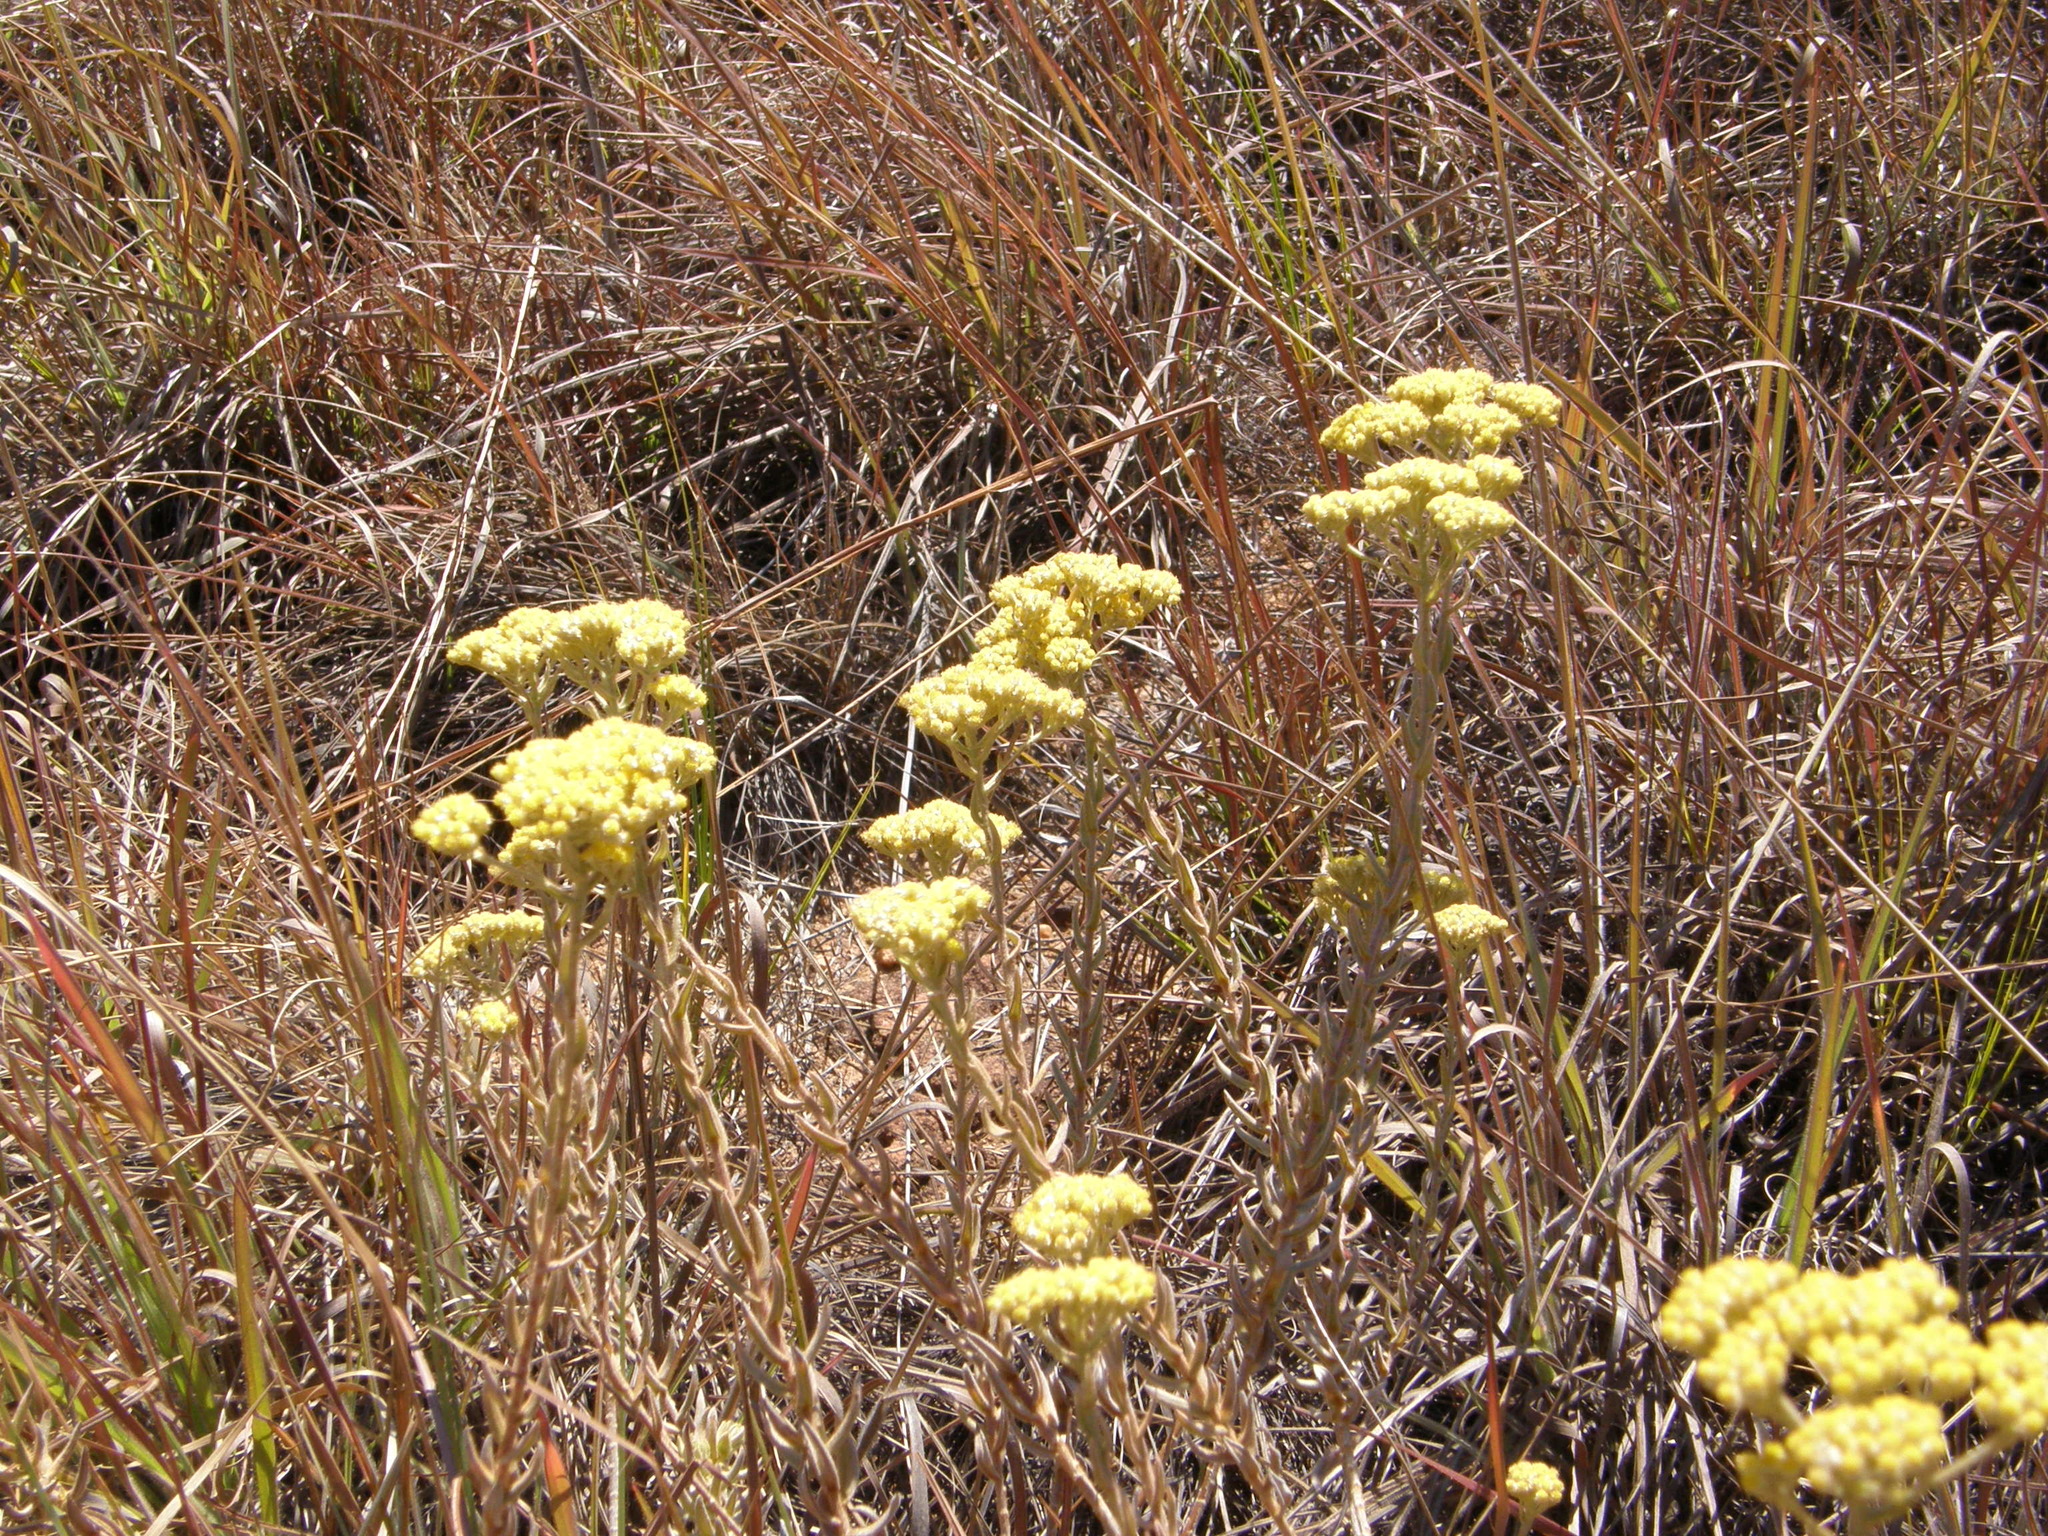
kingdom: Plantae
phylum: Tracheophyta
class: Magnoliopsida
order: Asterales
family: Asteraceae
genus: Helichrysum
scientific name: Helichrysum subumbellatum
